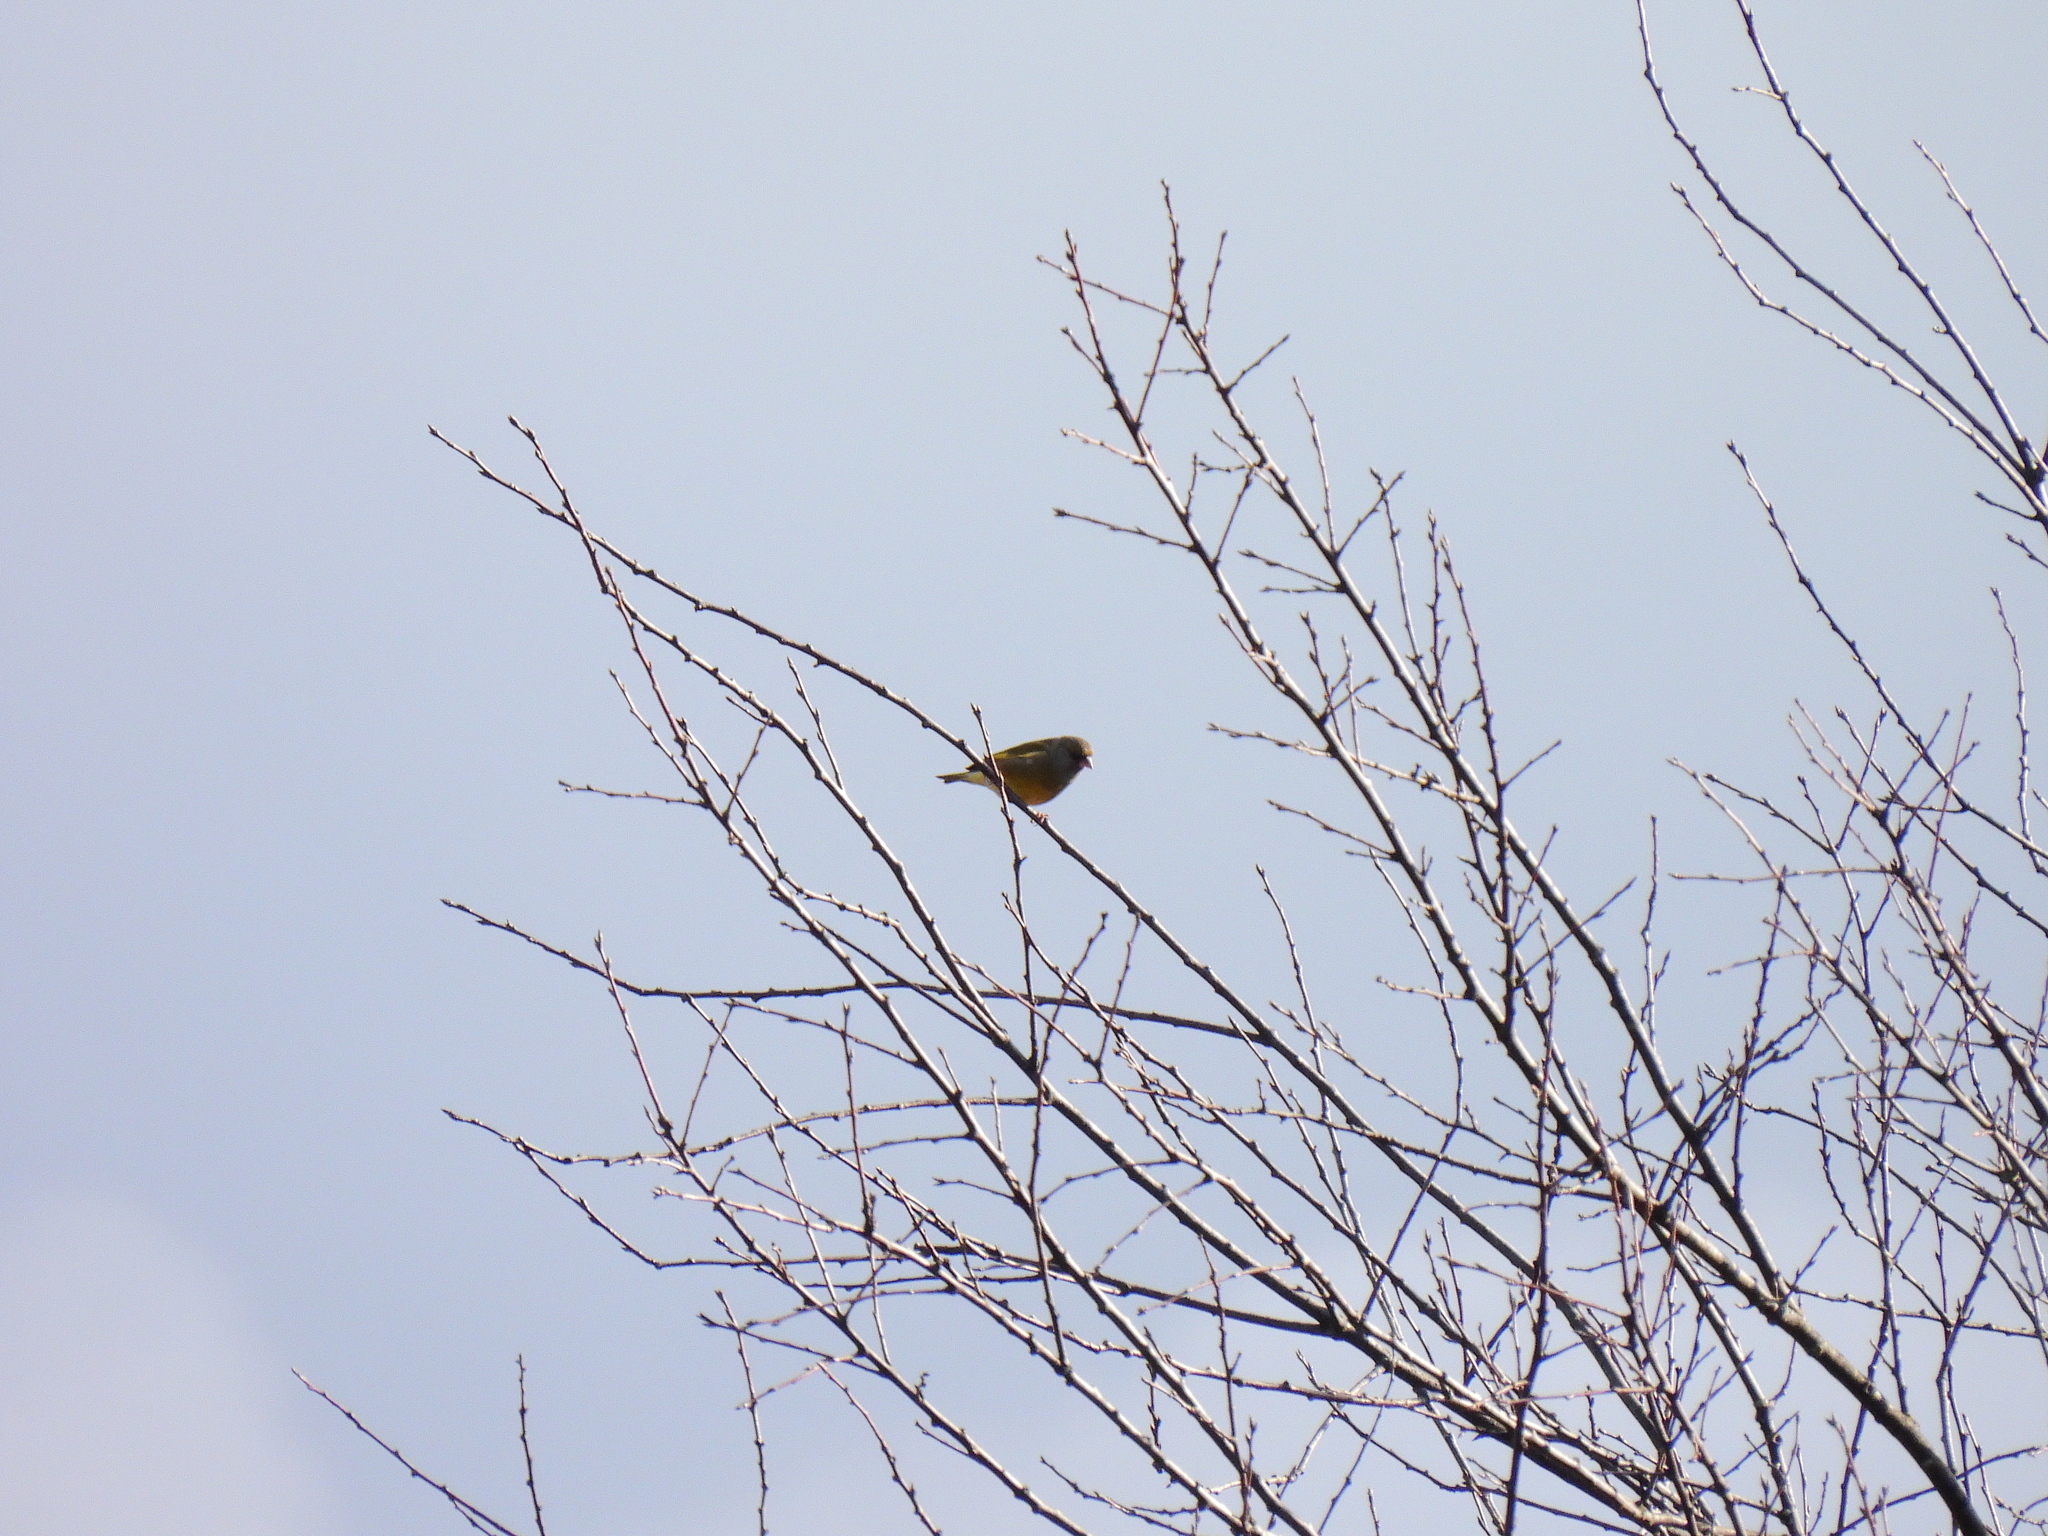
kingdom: Plantae
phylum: Tracheophyta
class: Liliopsida
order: Poales
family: Poaceae
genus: Chloris
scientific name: Chloris chloris
